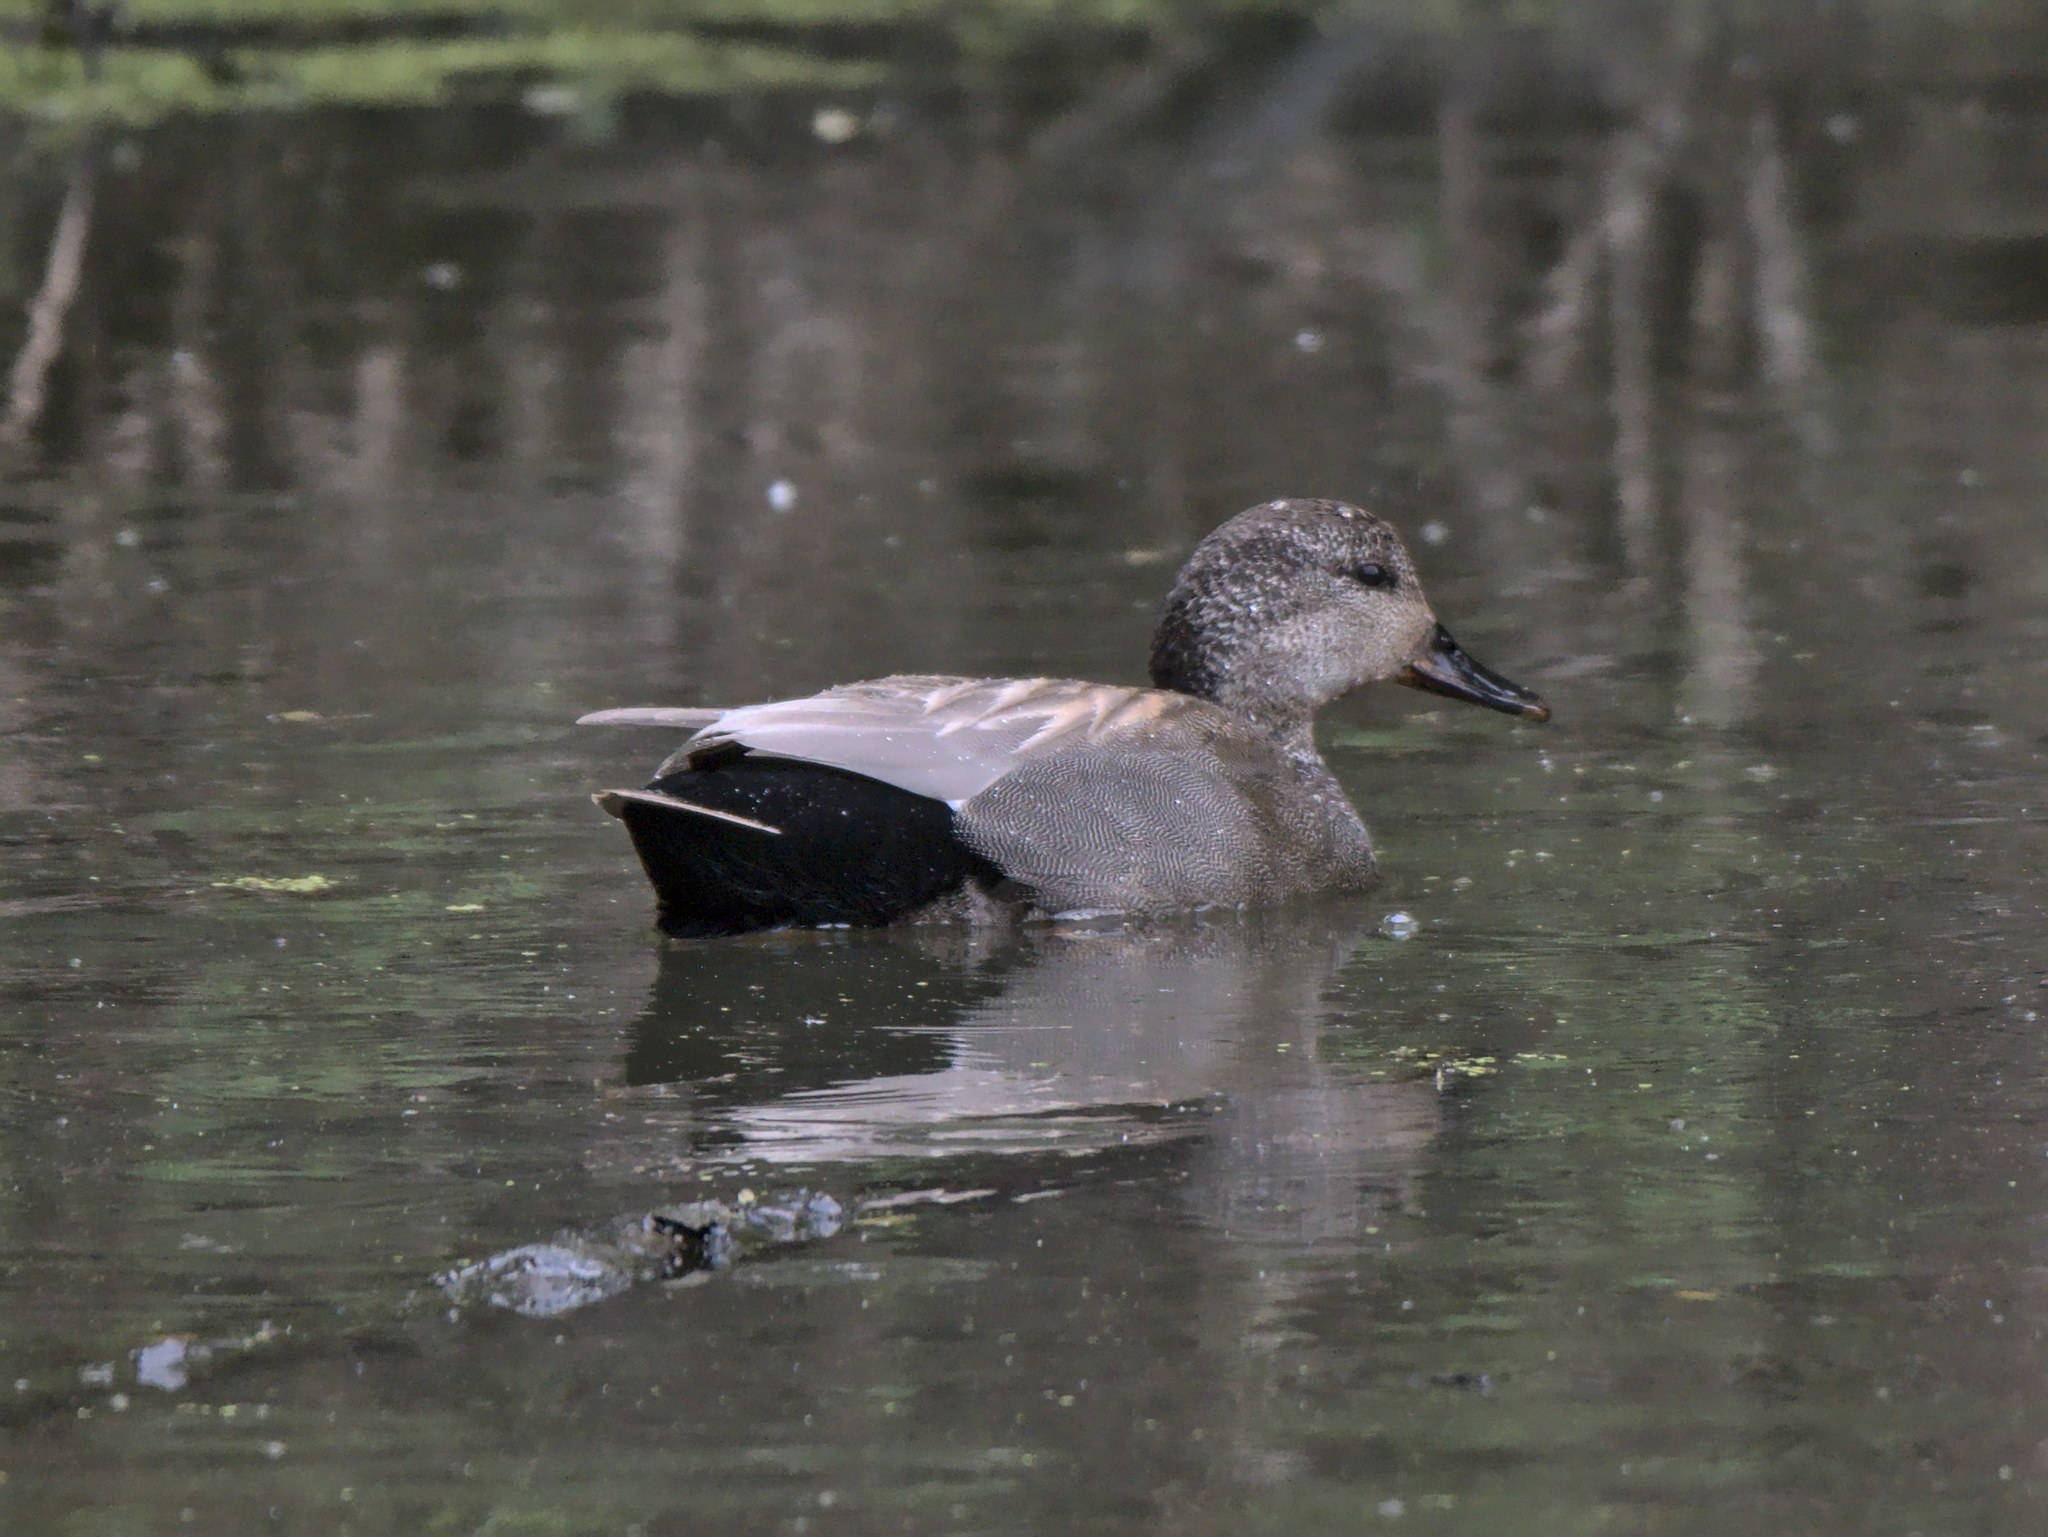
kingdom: Animalia
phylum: Chordata
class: Aves
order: Anseriformes
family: Anatidae
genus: Mareca
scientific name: Mareca strepera
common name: Gadwall
